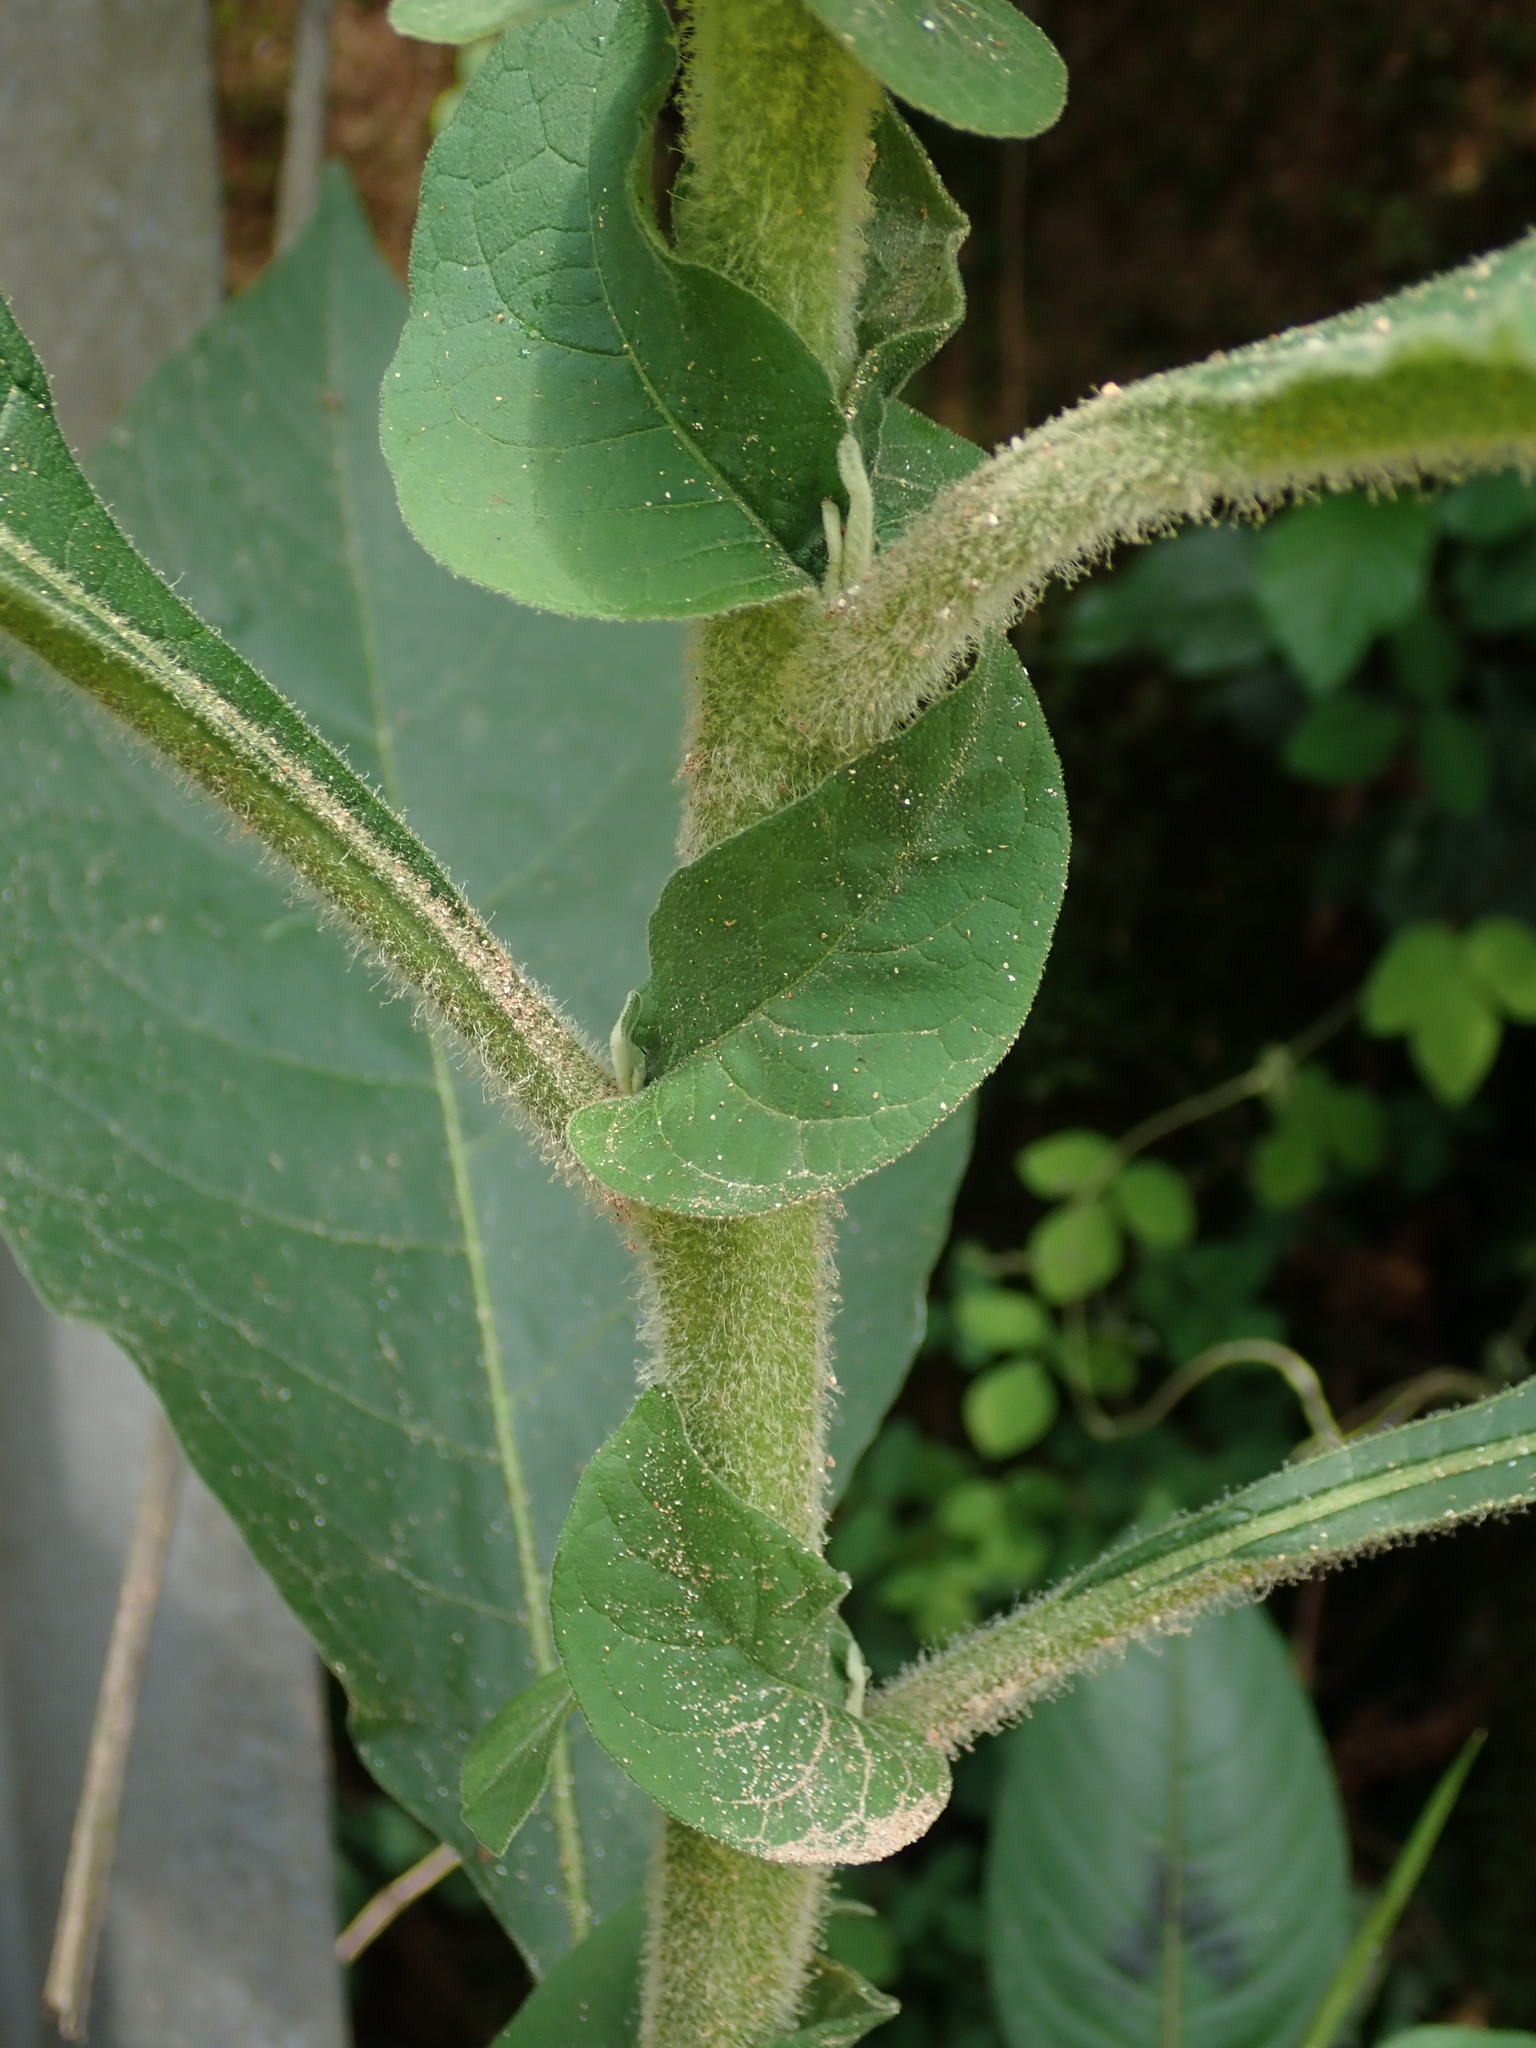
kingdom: Plantae
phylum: Tracheophyta
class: Magnoliopsida
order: Solanales
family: Solanaceae
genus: Solanum
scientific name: Solanum mauritianum
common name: Earleaf nightshade
